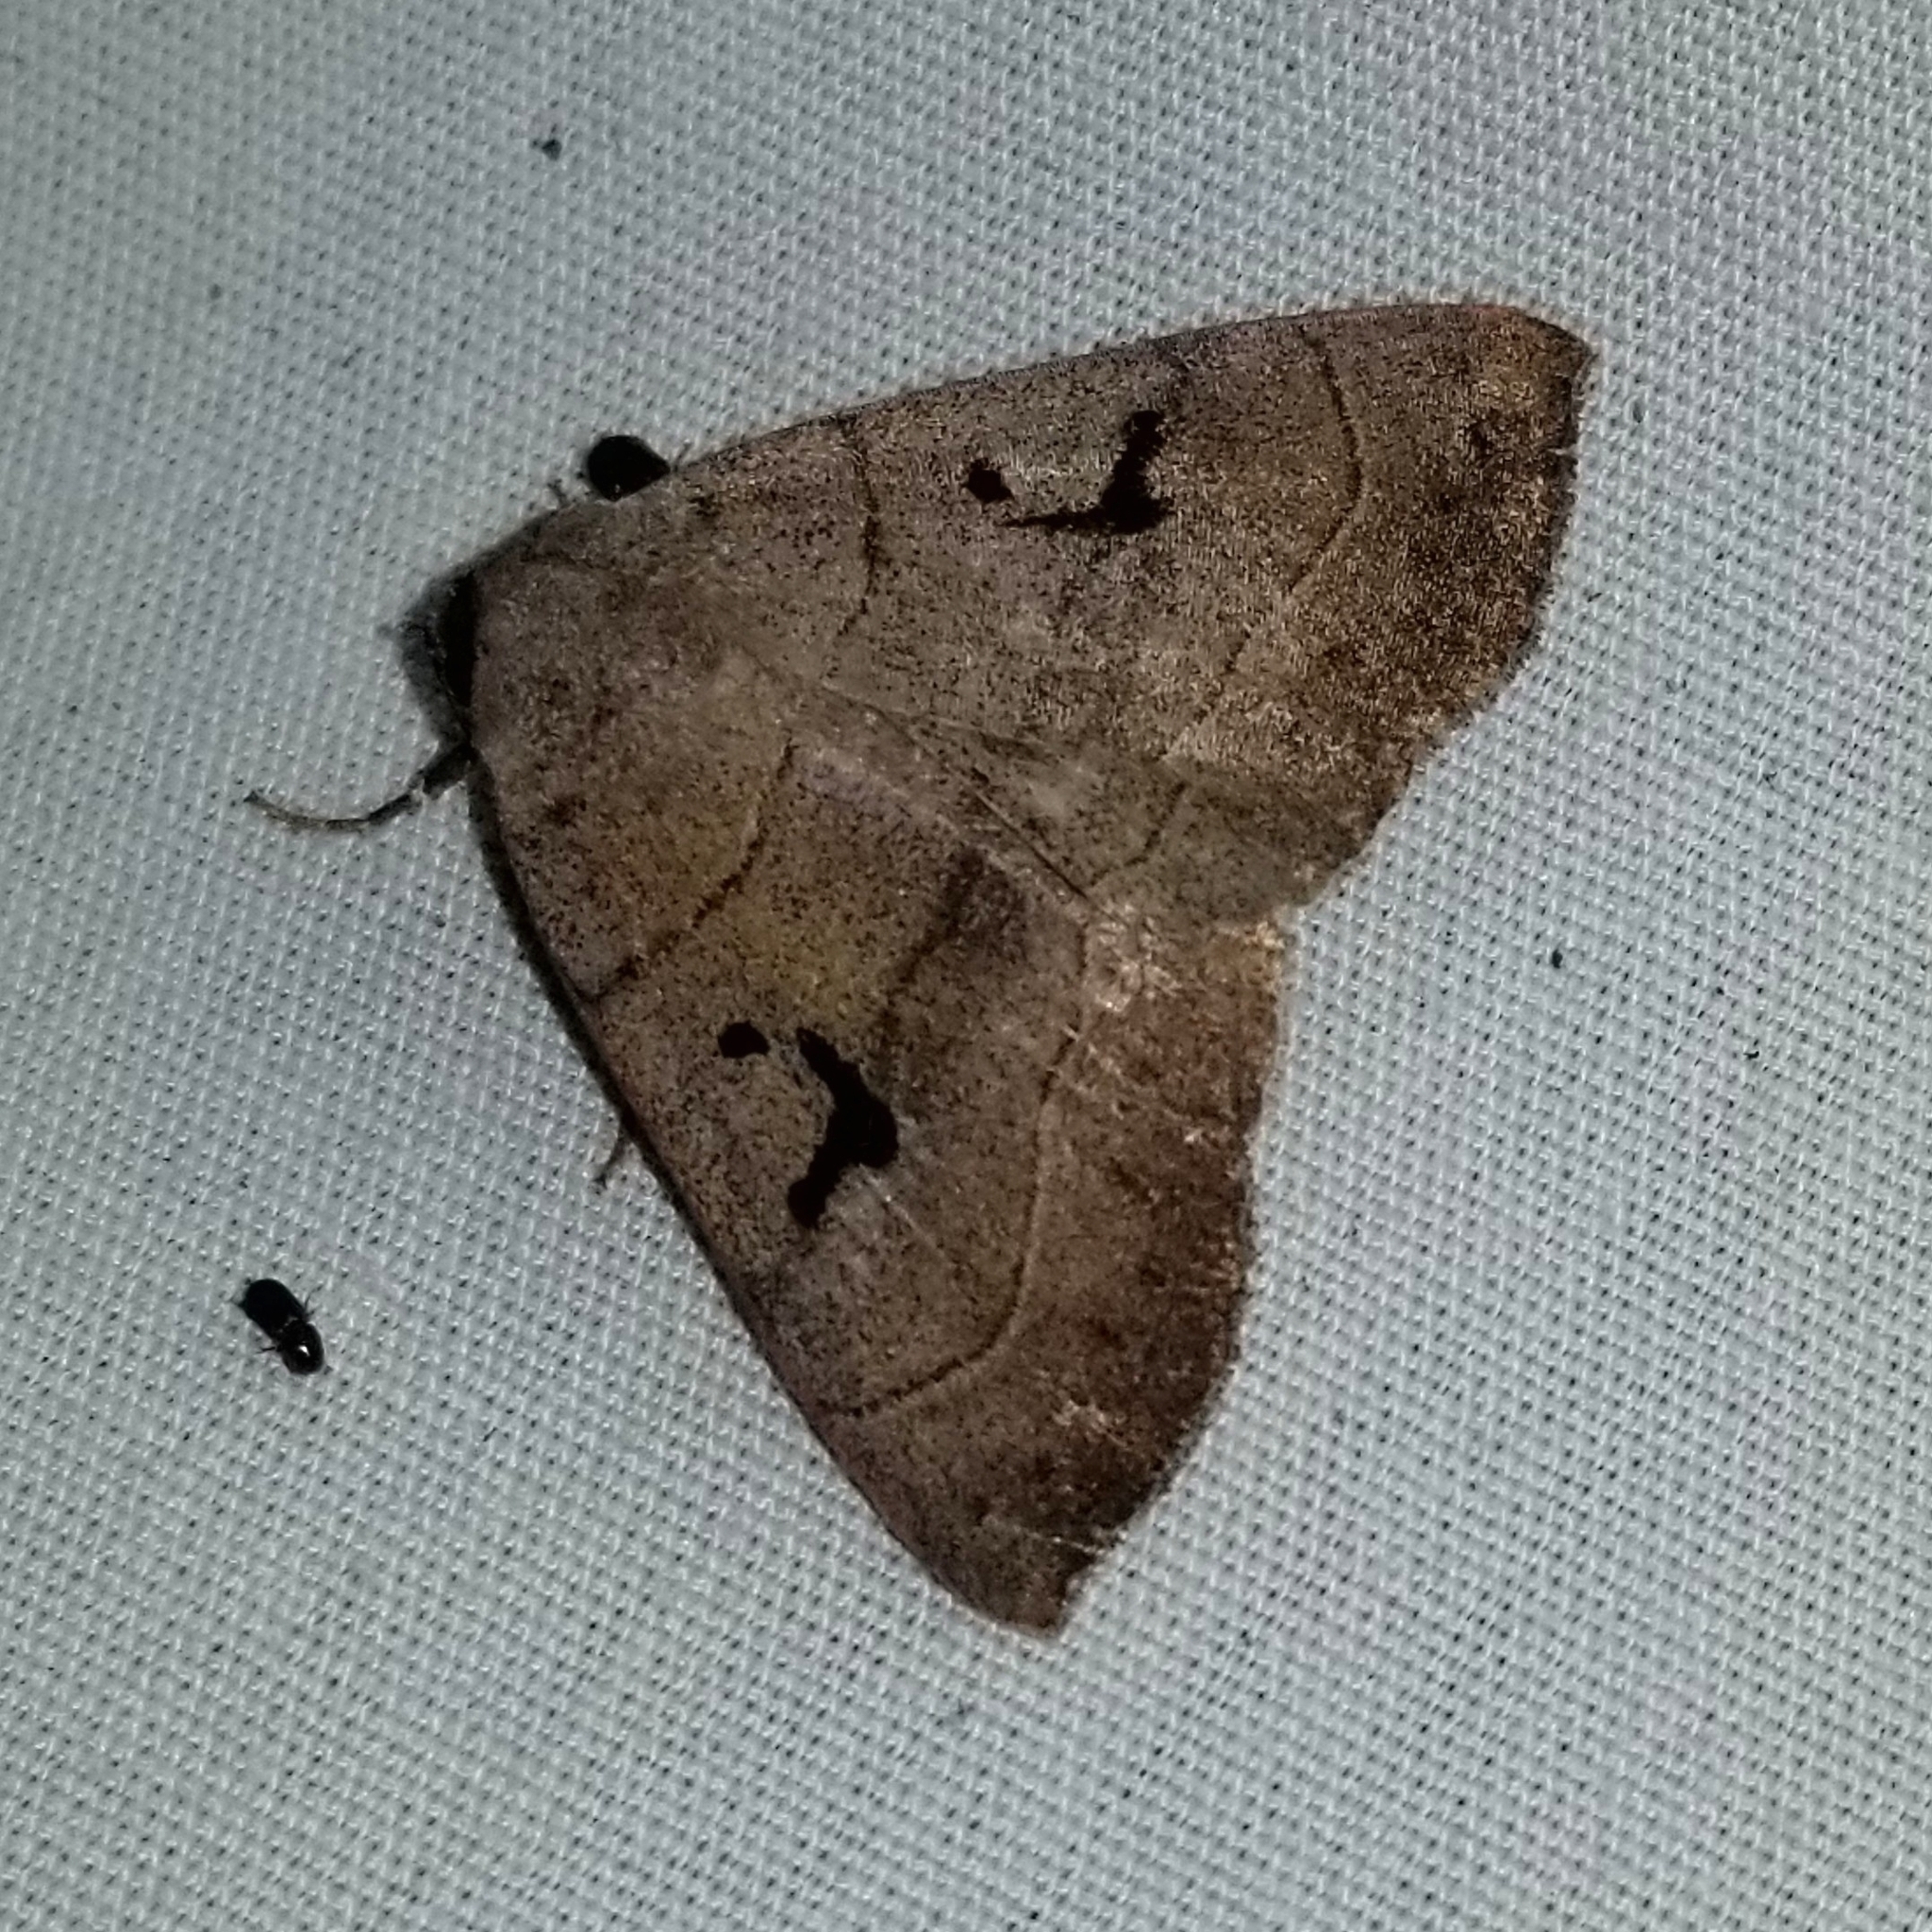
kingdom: Animalia
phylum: Arthropoda
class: Insecta
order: Lepidoptera
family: Erebidae
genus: Panopoda
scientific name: Panopoda carneicosta
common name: Brown panopoda moth
